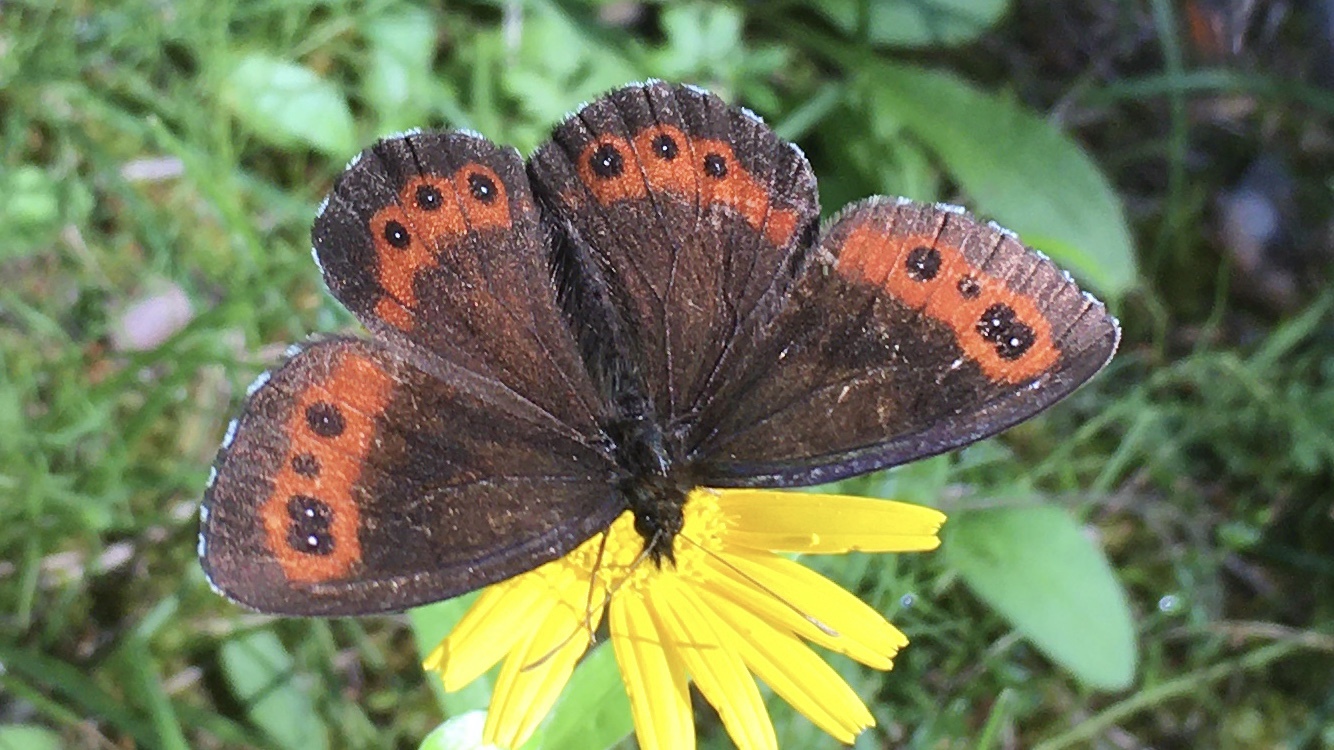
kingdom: Animalia
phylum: Arthropoda
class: Insecta
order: Lepidoptera
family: Nymphalidae
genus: Erebia
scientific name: Erebia ligea
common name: Arran brown
